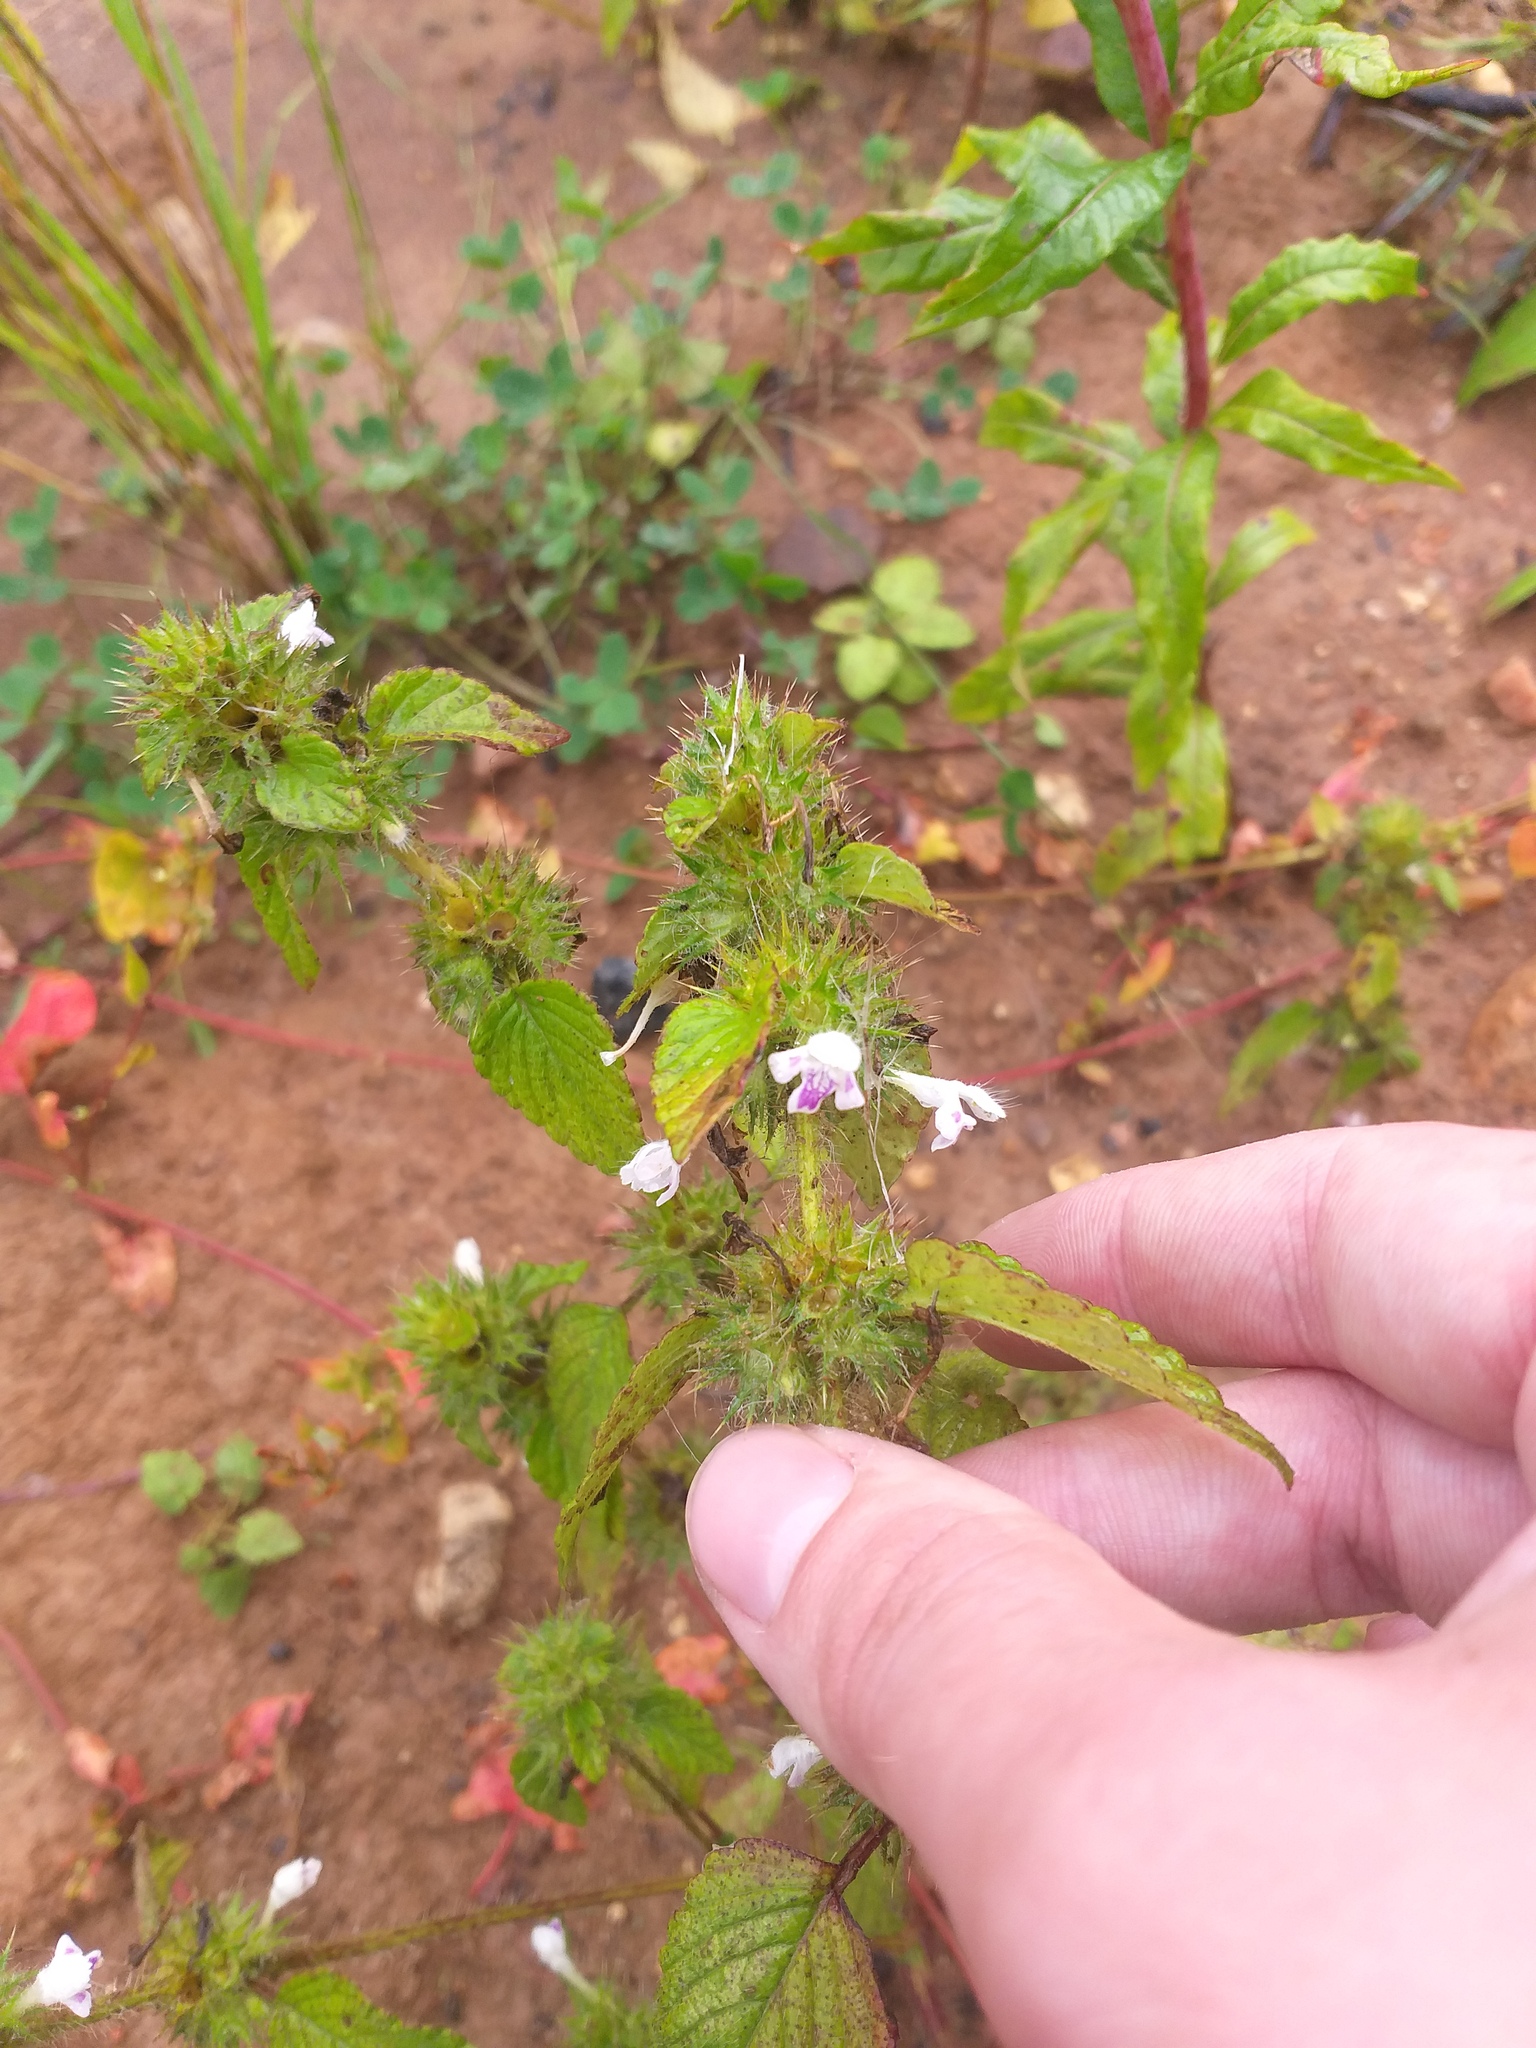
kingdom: Plantae
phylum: Tracheophyta
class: Magnoliopsida
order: Lamiales
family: Lamiaceae
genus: Galeopsis
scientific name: Galeopsis tetrahit
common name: Common hemp-nettle
